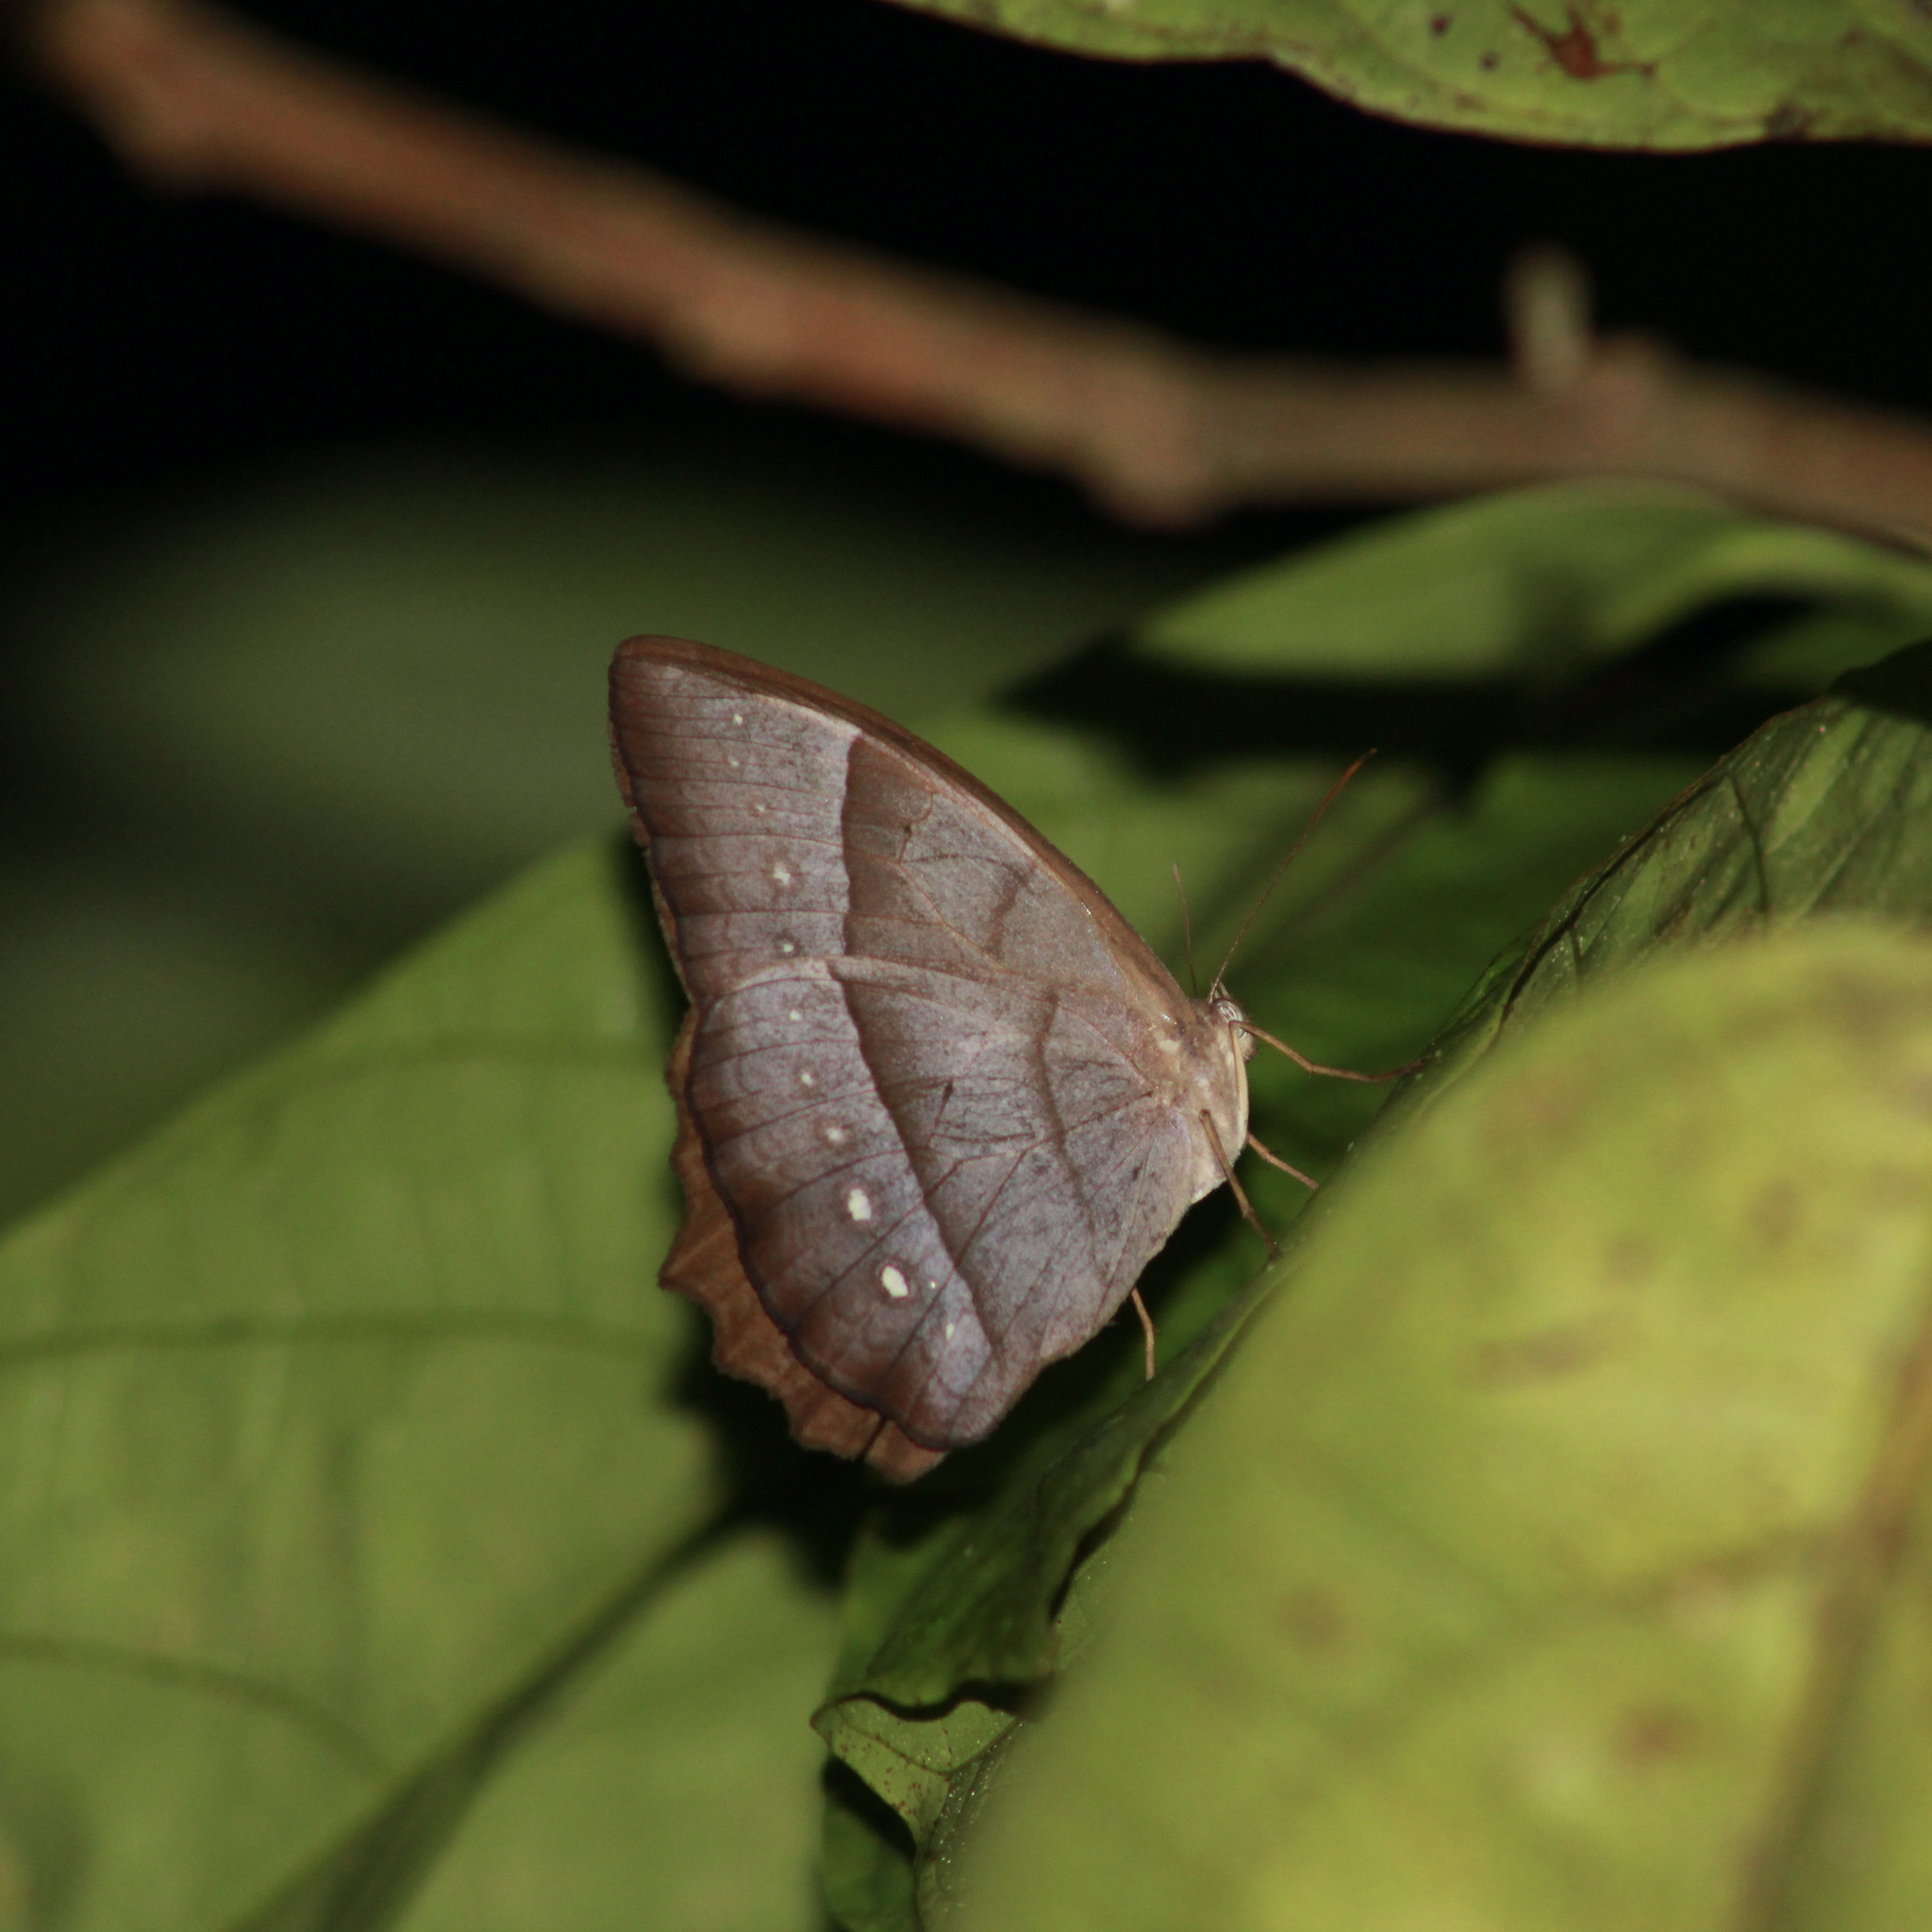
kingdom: Animalia
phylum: Arthropoda
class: Insecta
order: Lepidoptera
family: Nymphalidae
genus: Taygetis
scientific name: Taygetis echo
